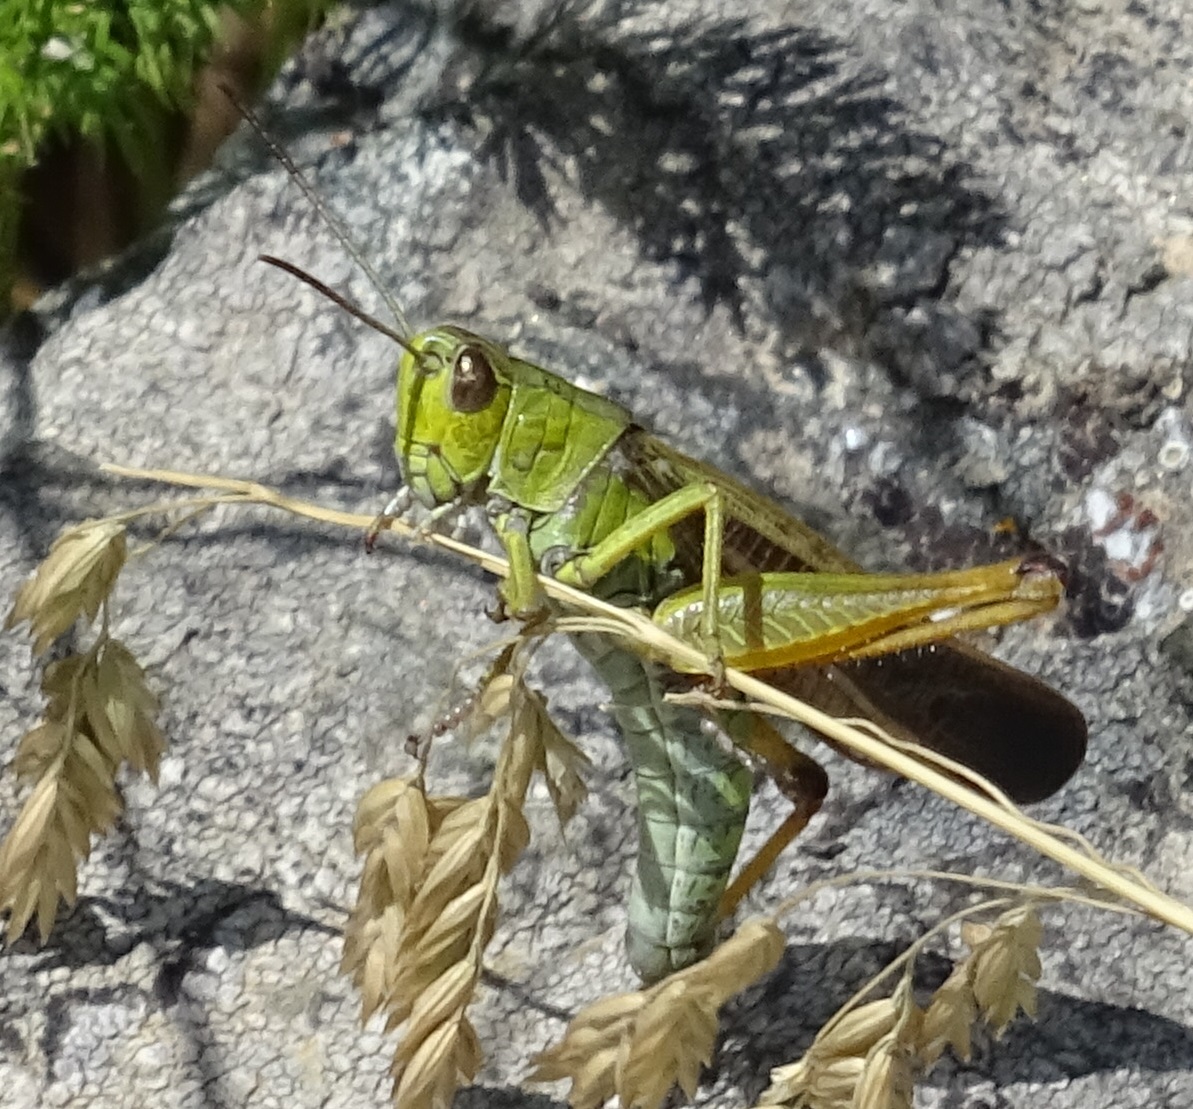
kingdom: Animalia
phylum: Arthropoda
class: Insecta
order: Orthoptera
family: Acrididae
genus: Stauroderus
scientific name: Stauroderus scalaris
